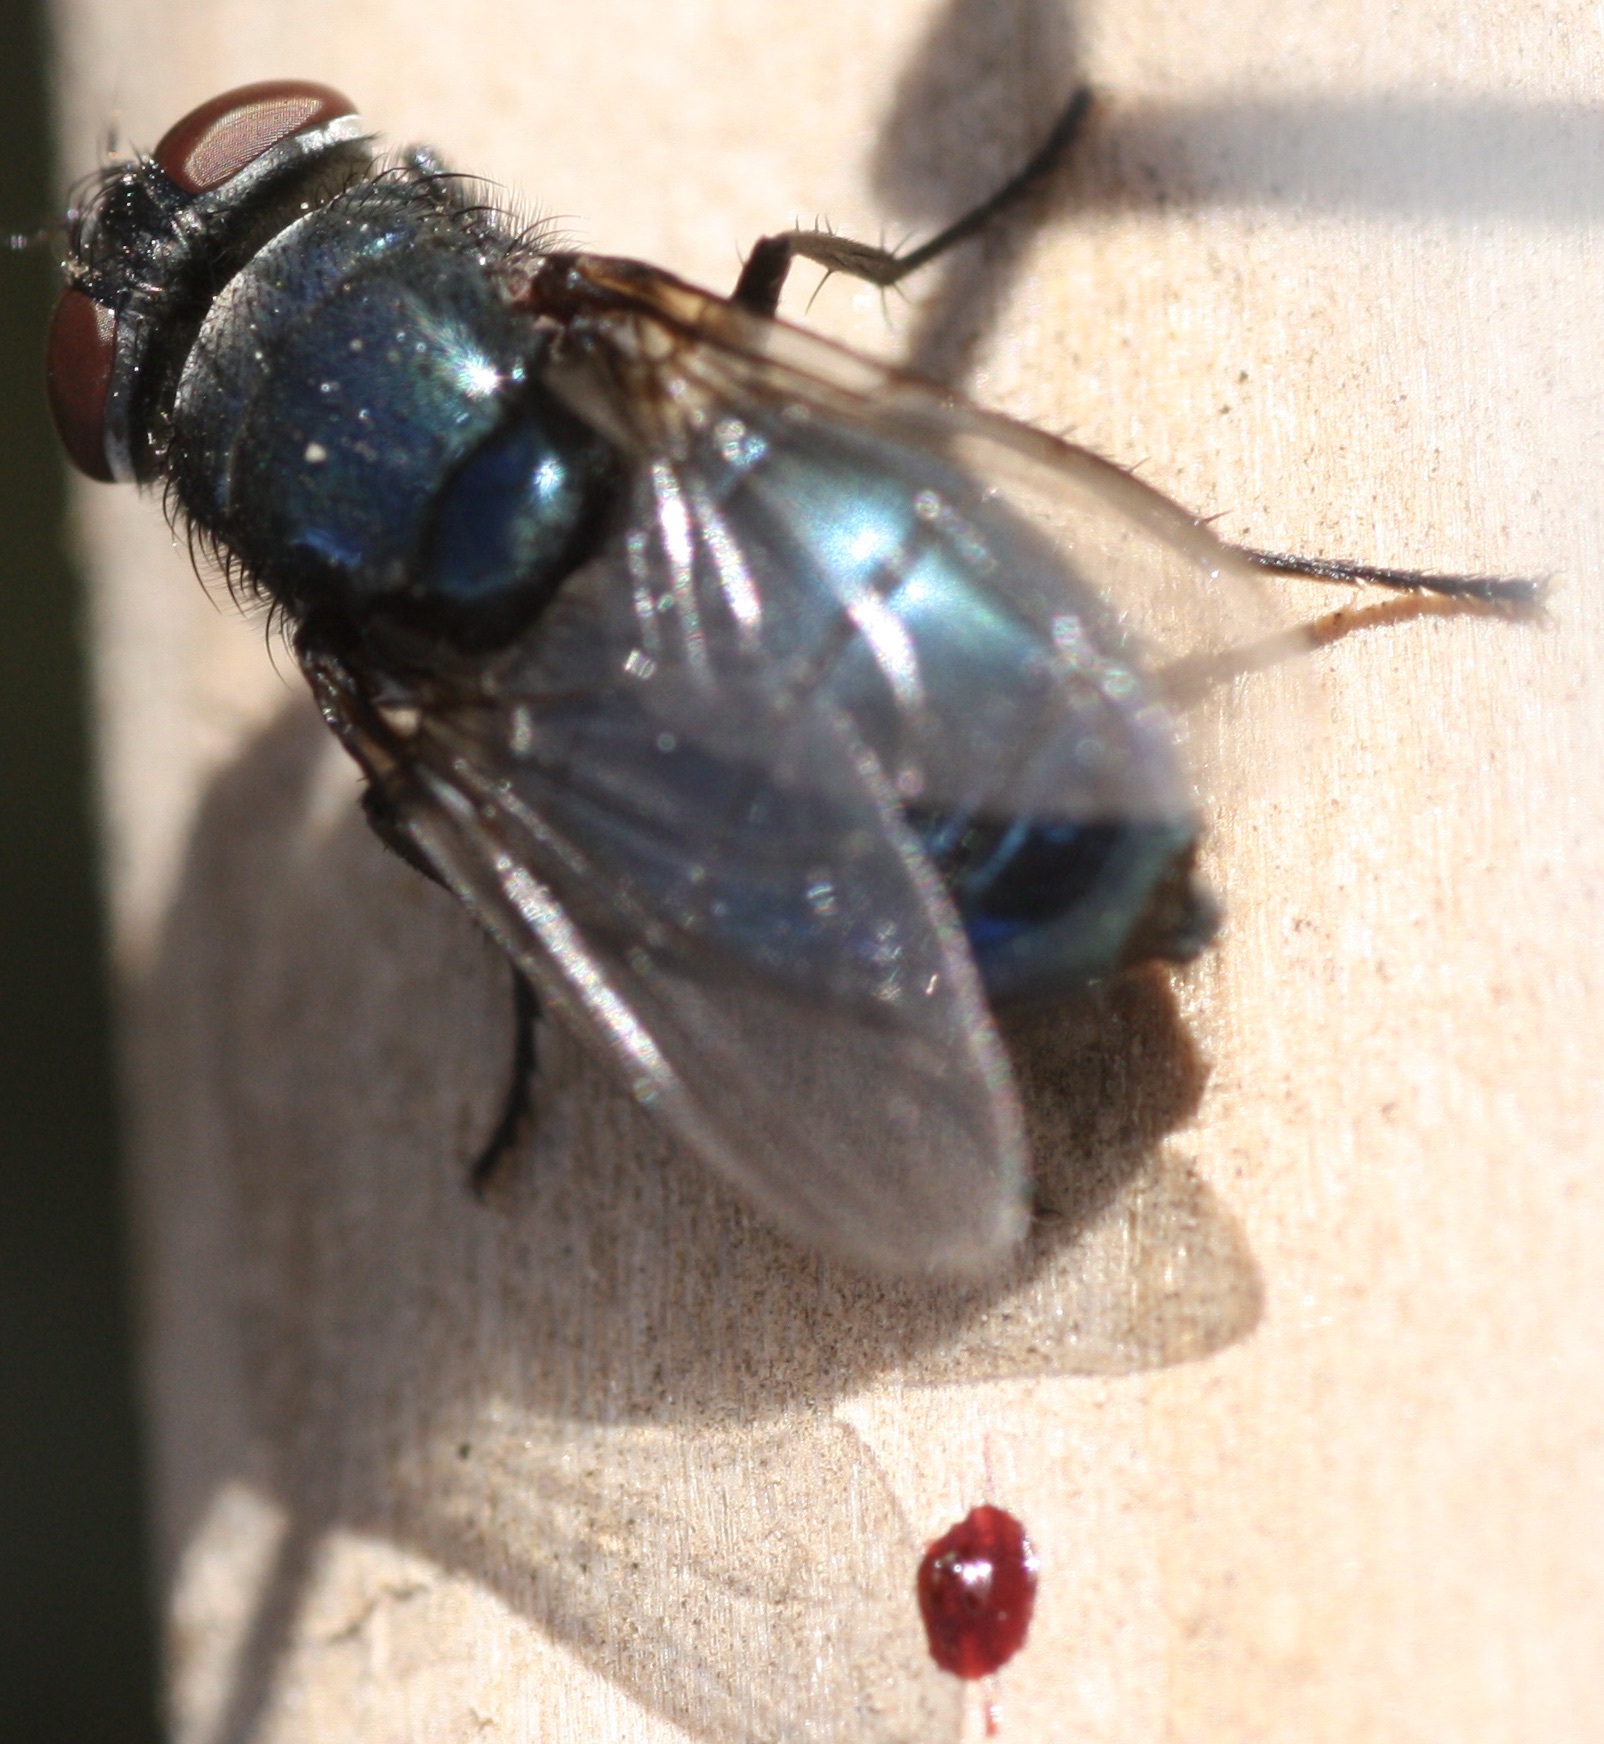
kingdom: Animalia
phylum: Arthropoda
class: Insecta
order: Diptera
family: Calliphoridae
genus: Phormia
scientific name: Phormia regina
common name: Black blow fly
